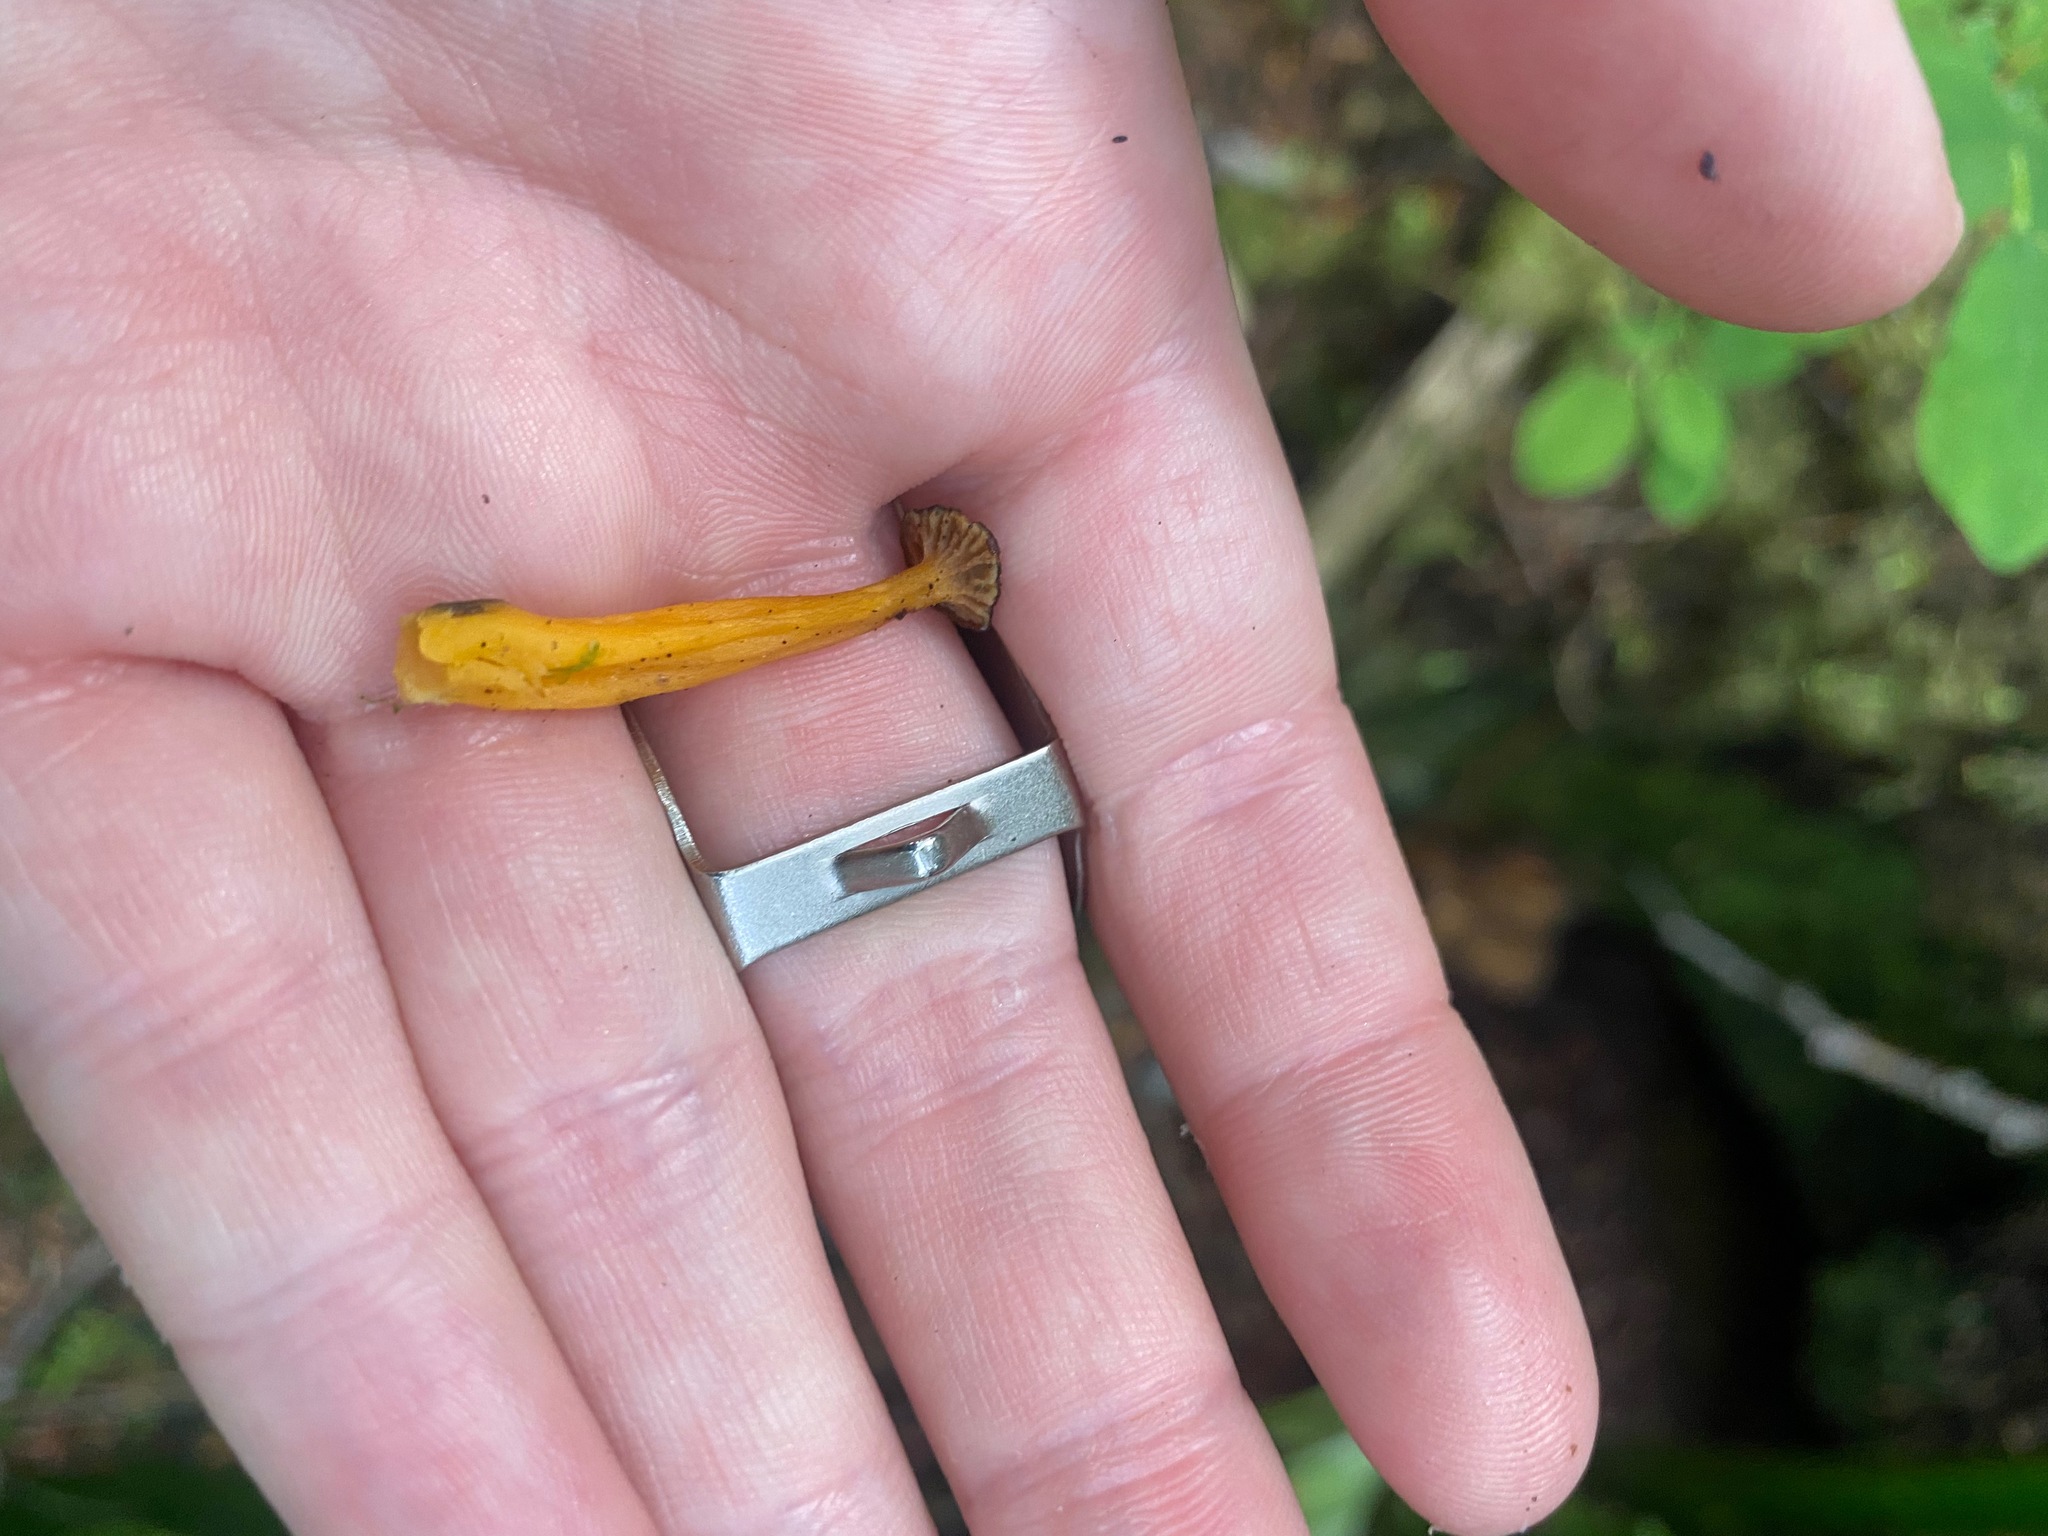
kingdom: Fungi
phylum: Basidiomycota
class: Agaricomycetes
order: Cantharellales
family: Hydnaceae
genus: Craterellus
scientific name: Craterellus tubaeformis
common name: Yellowfoot
